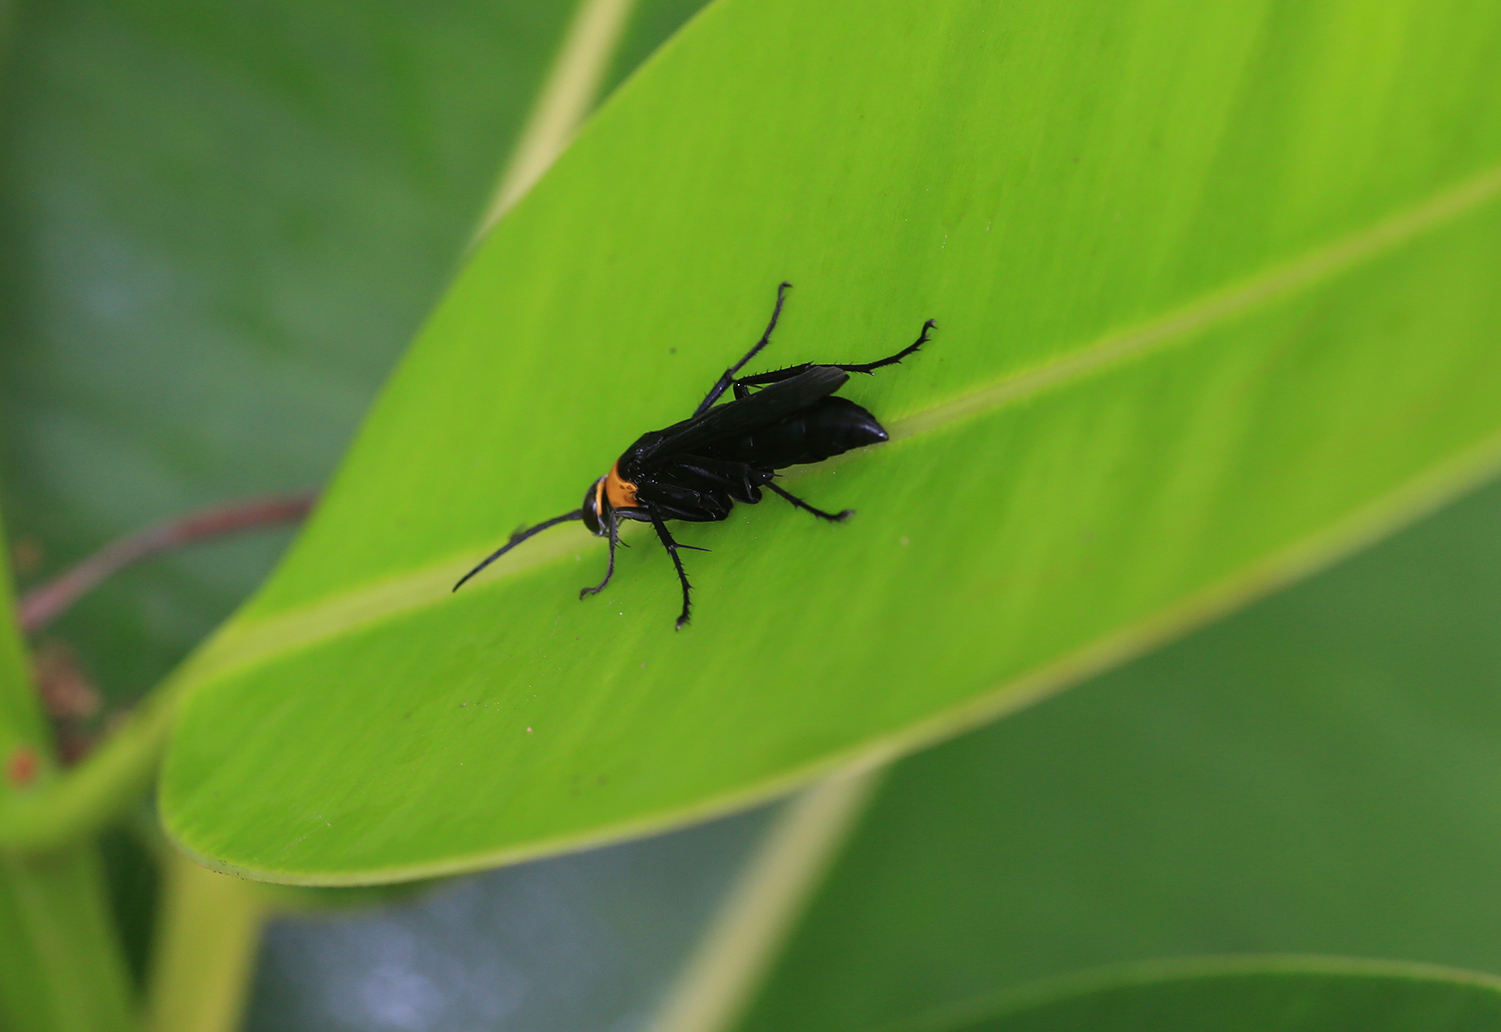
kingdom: Animalia
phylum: Arthropoda
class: Insecta
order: Hymenoptera
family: Pompilidae
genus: Ferreola
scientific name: Ferreola handschini
